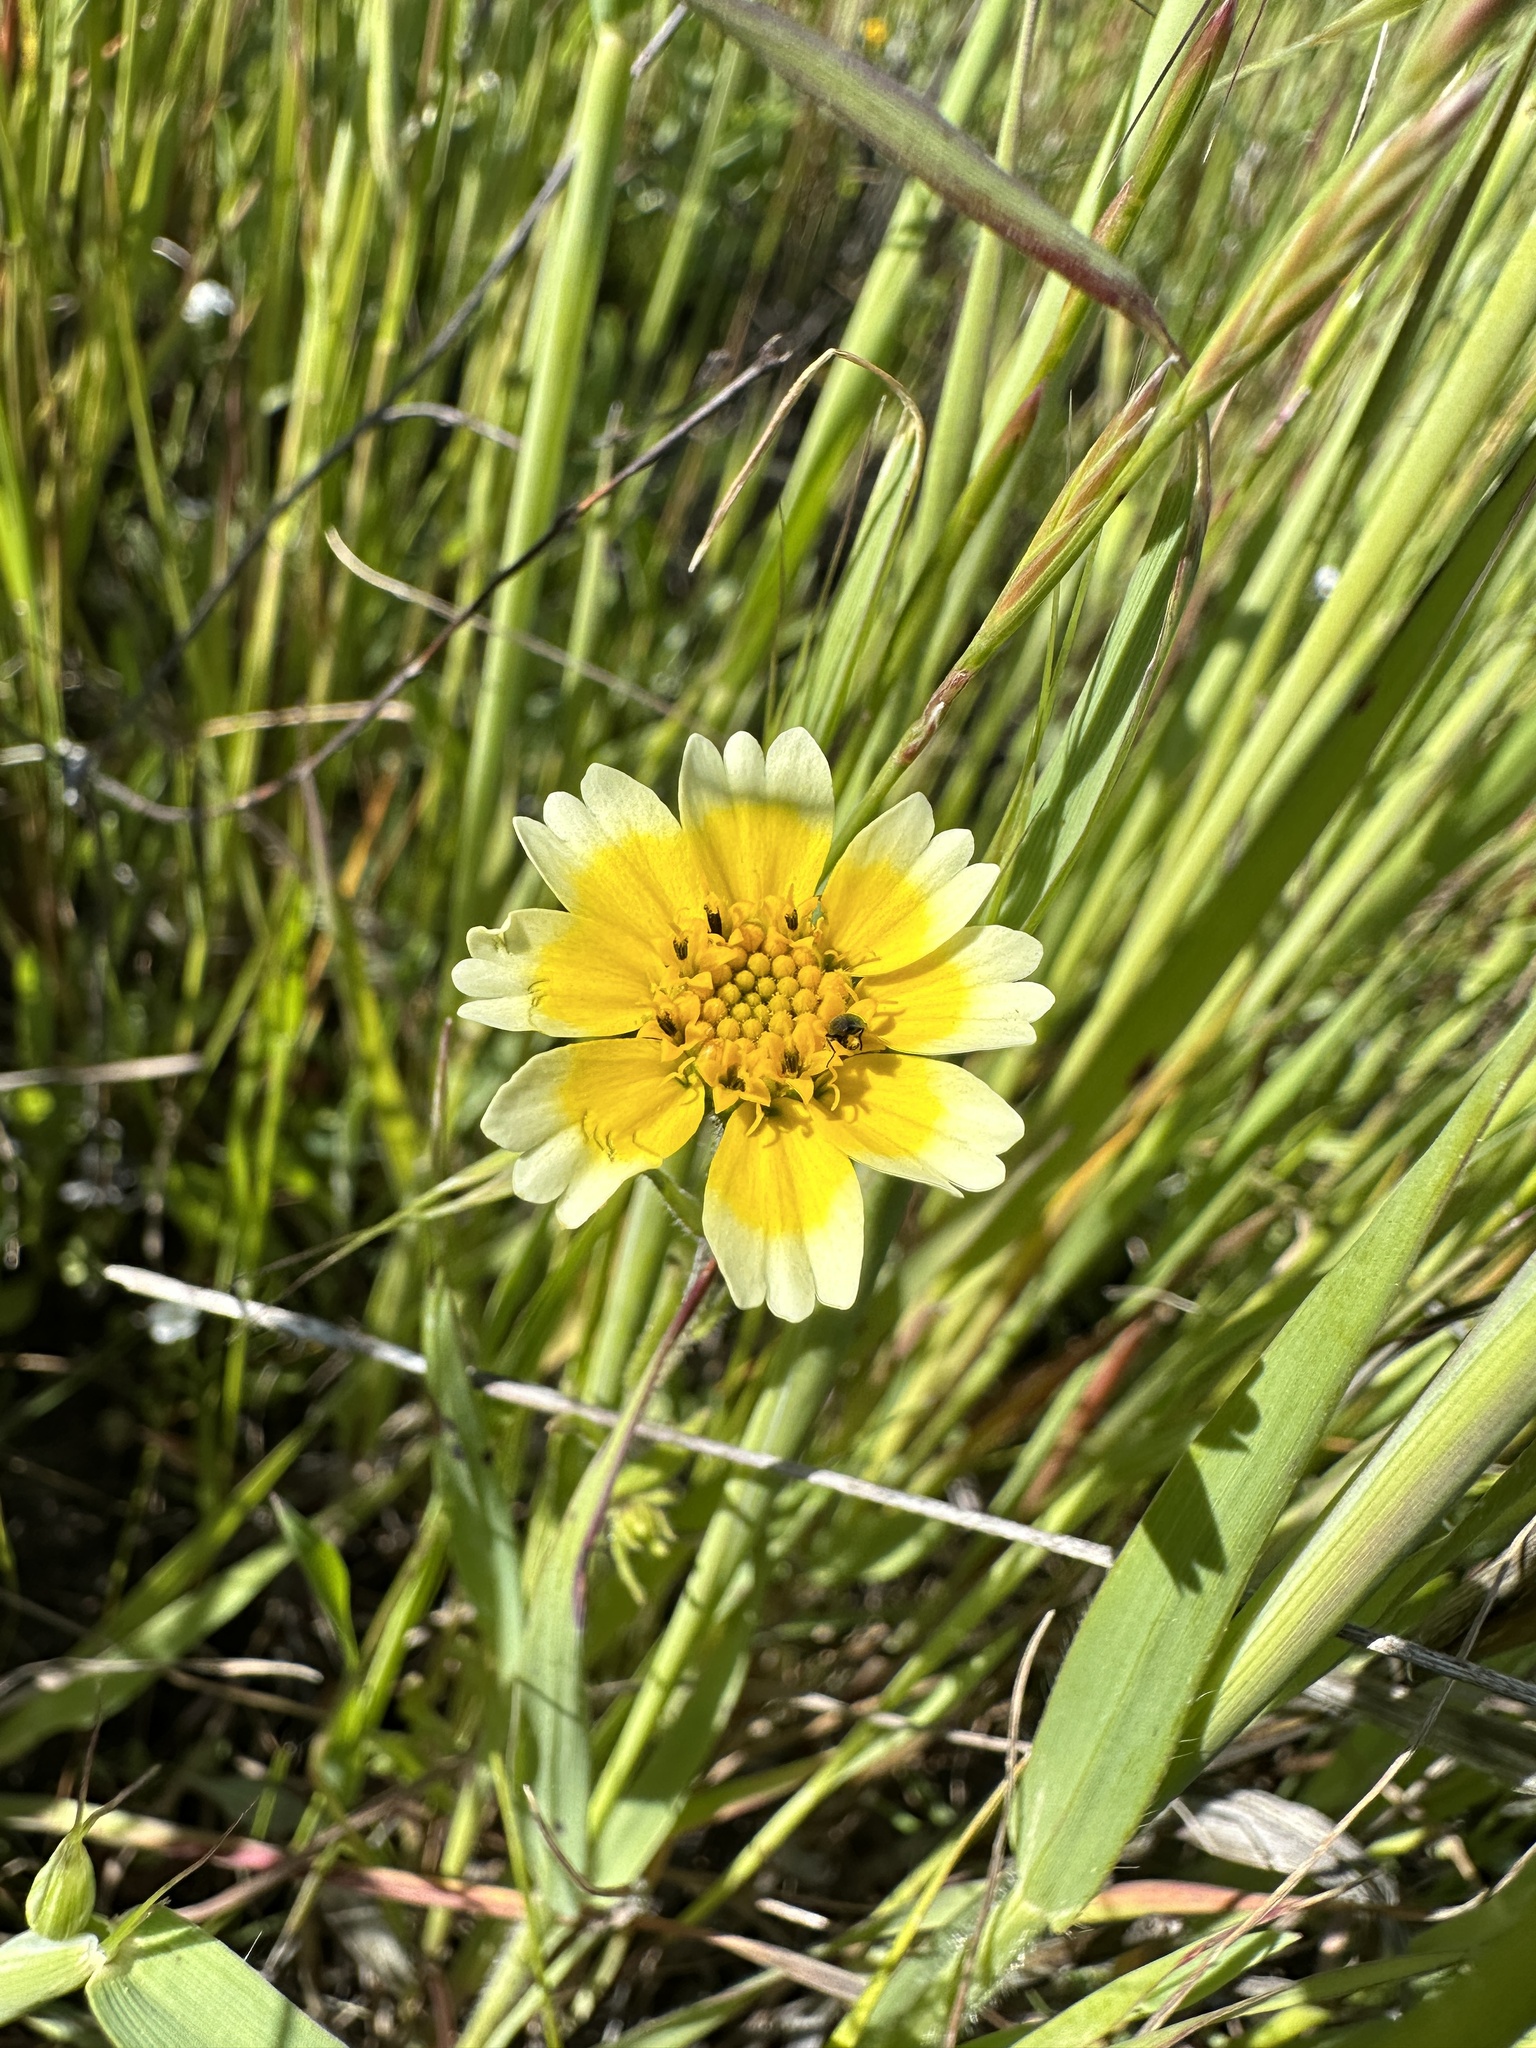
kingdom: Plantae
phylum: Tracheophyta
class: Magnoliopsida
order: Asterales
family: Asteraceae
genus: Layia
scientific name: Layia gaillardioides
